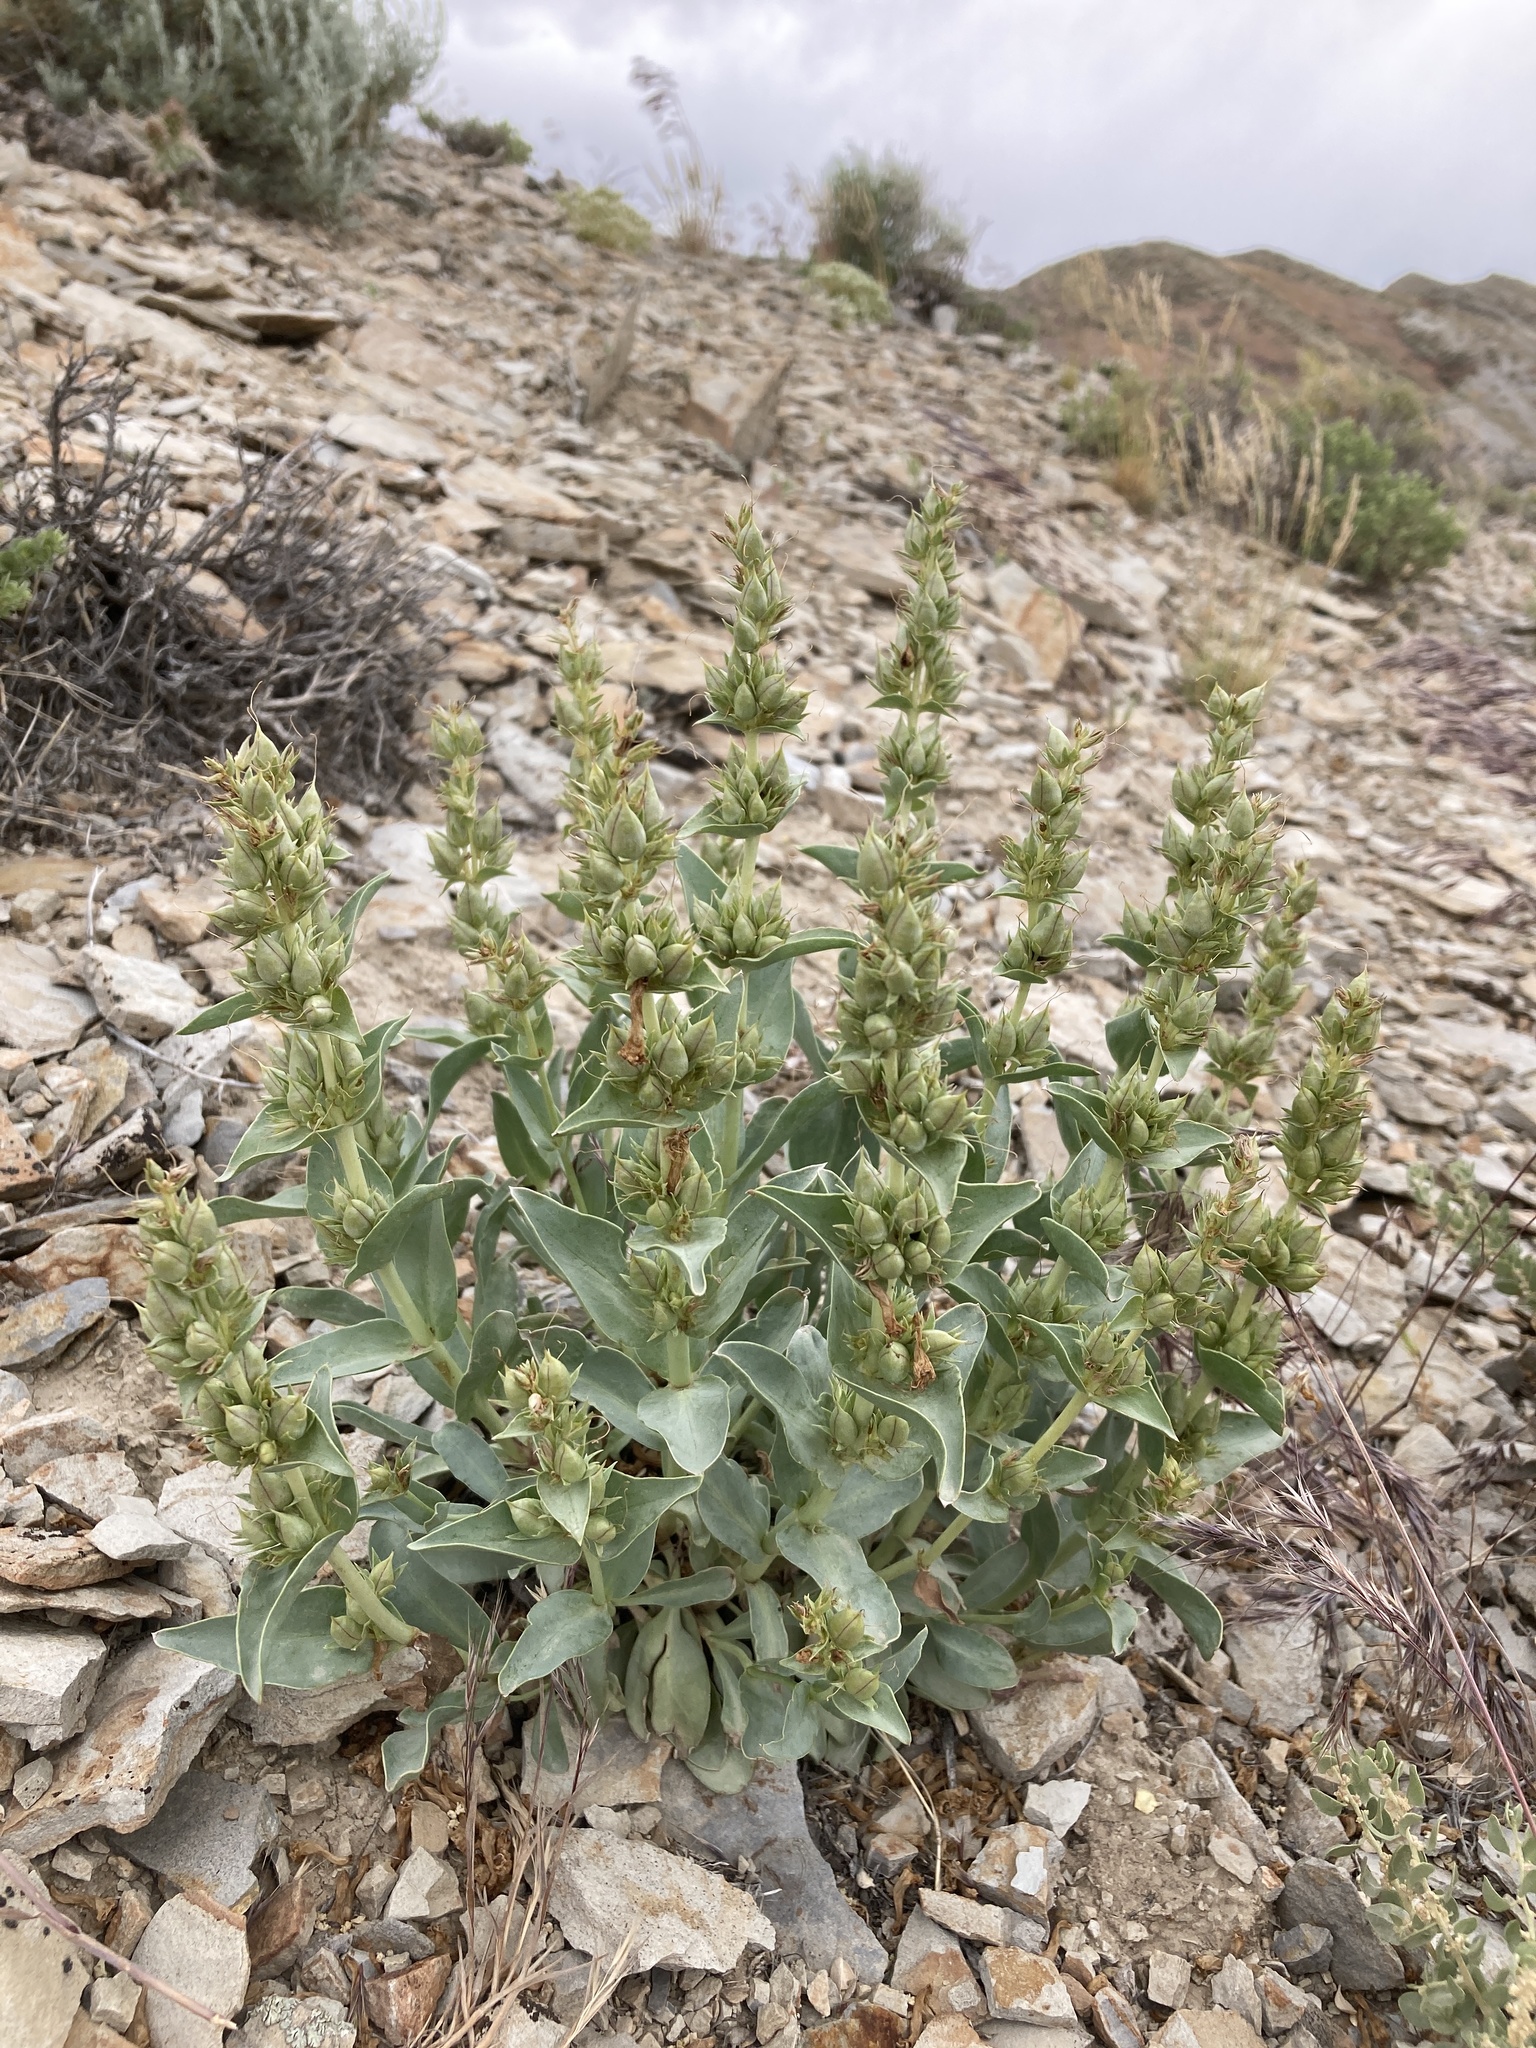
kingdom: Plantae
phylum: Tracheophyta
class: Magnoliopsida
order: Lamiales
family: Plantaginaceae
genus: Penstemon
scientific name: Penstemon nitidus
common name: Shining penstemon
